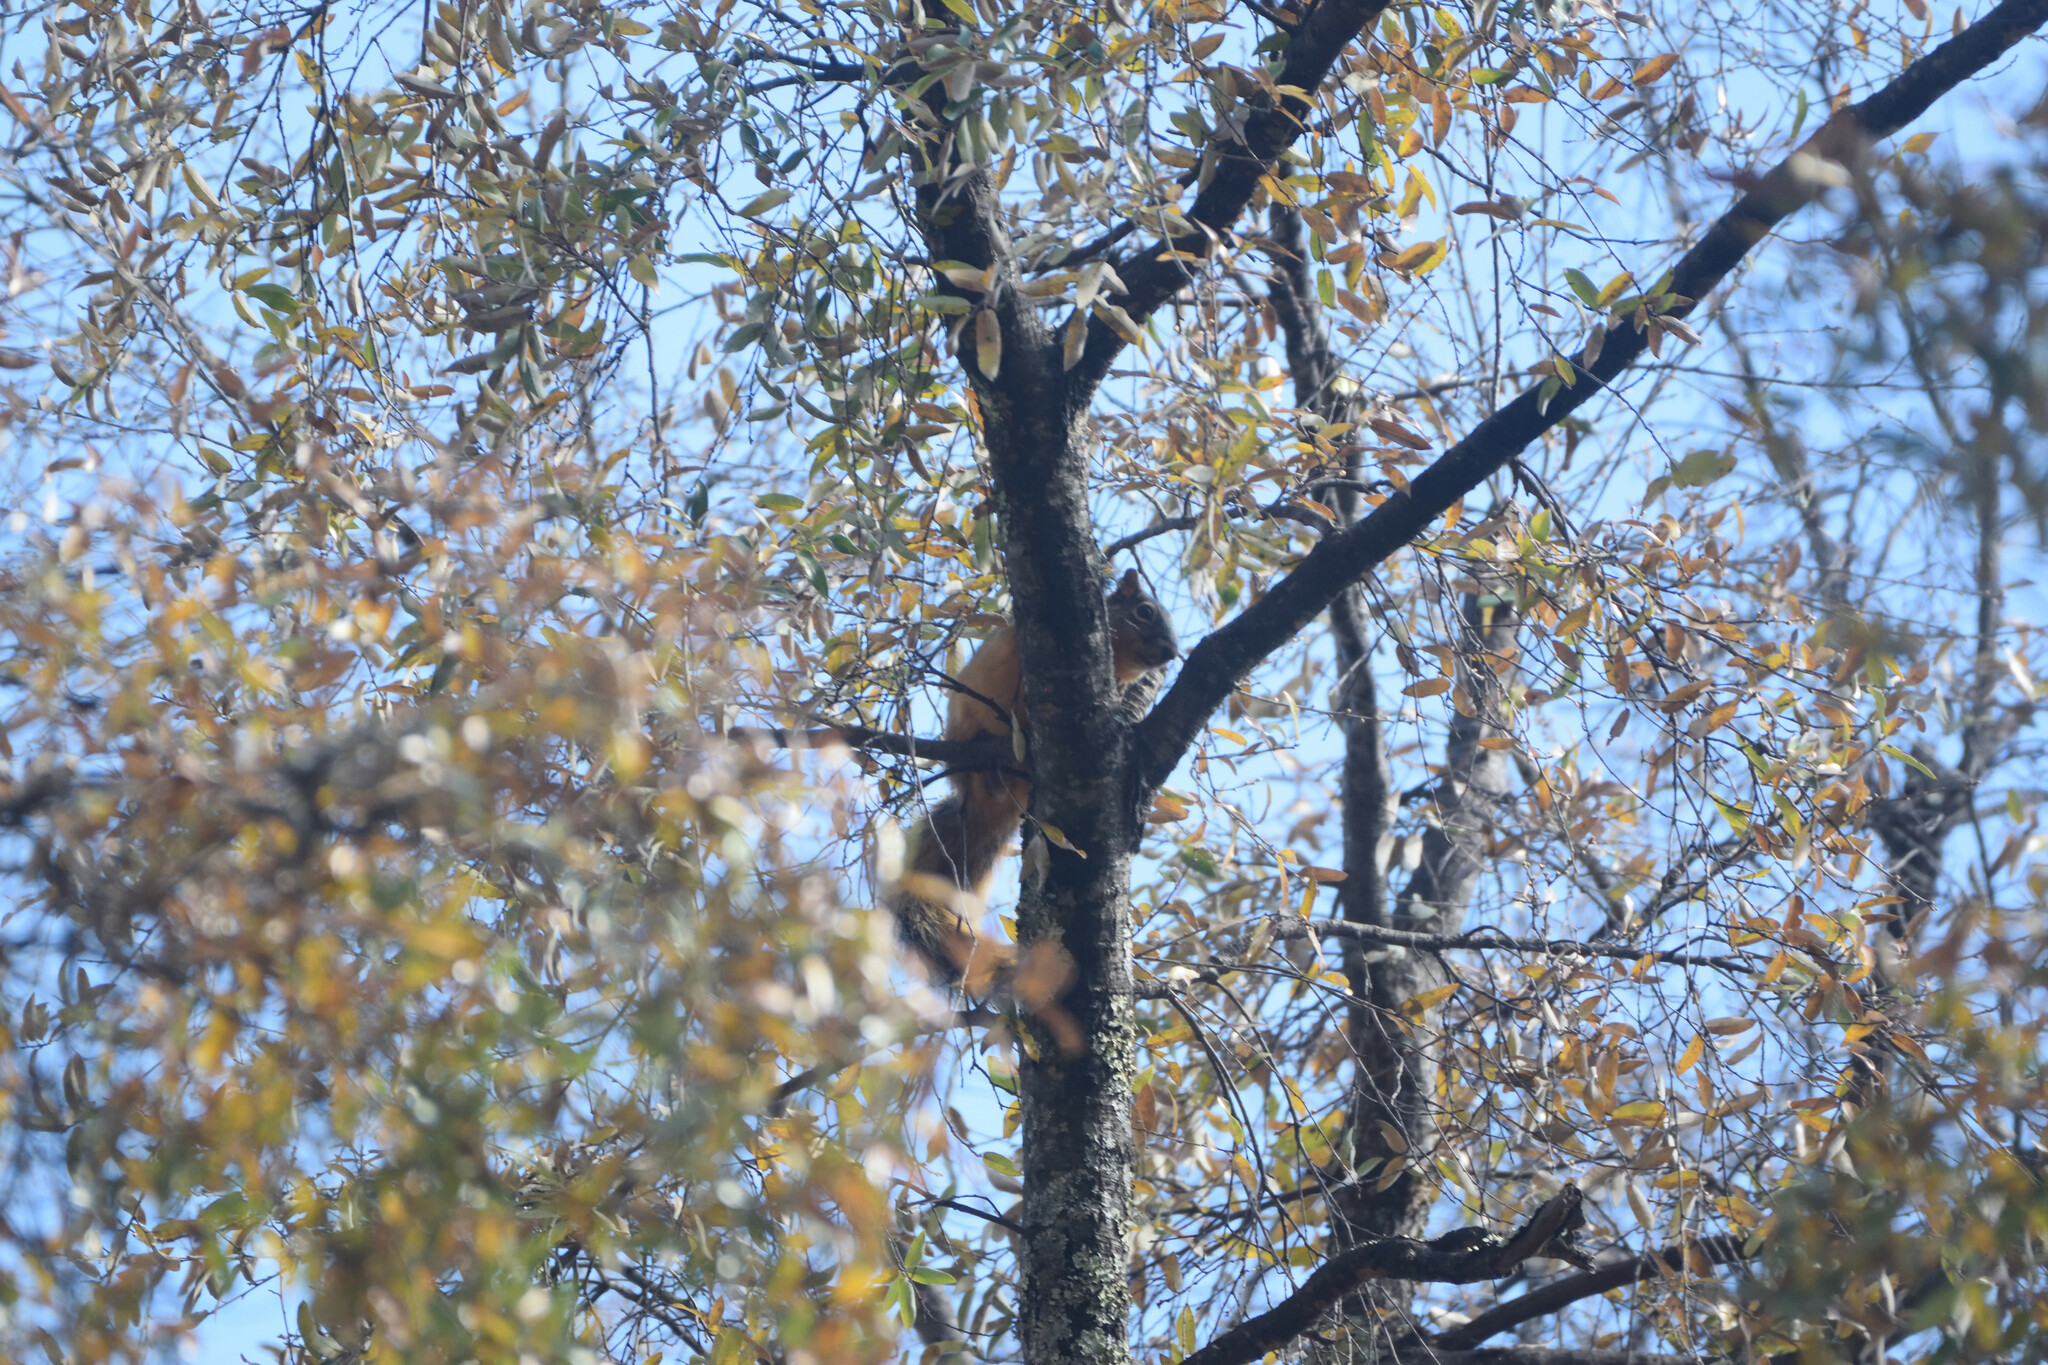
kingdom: Animalia
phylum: Chordata
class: Mammalia
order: Rodentia
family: Sciuridae
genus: Sciurus
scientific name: Sciurus nayaritensis
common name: Mexican fox squirrel
